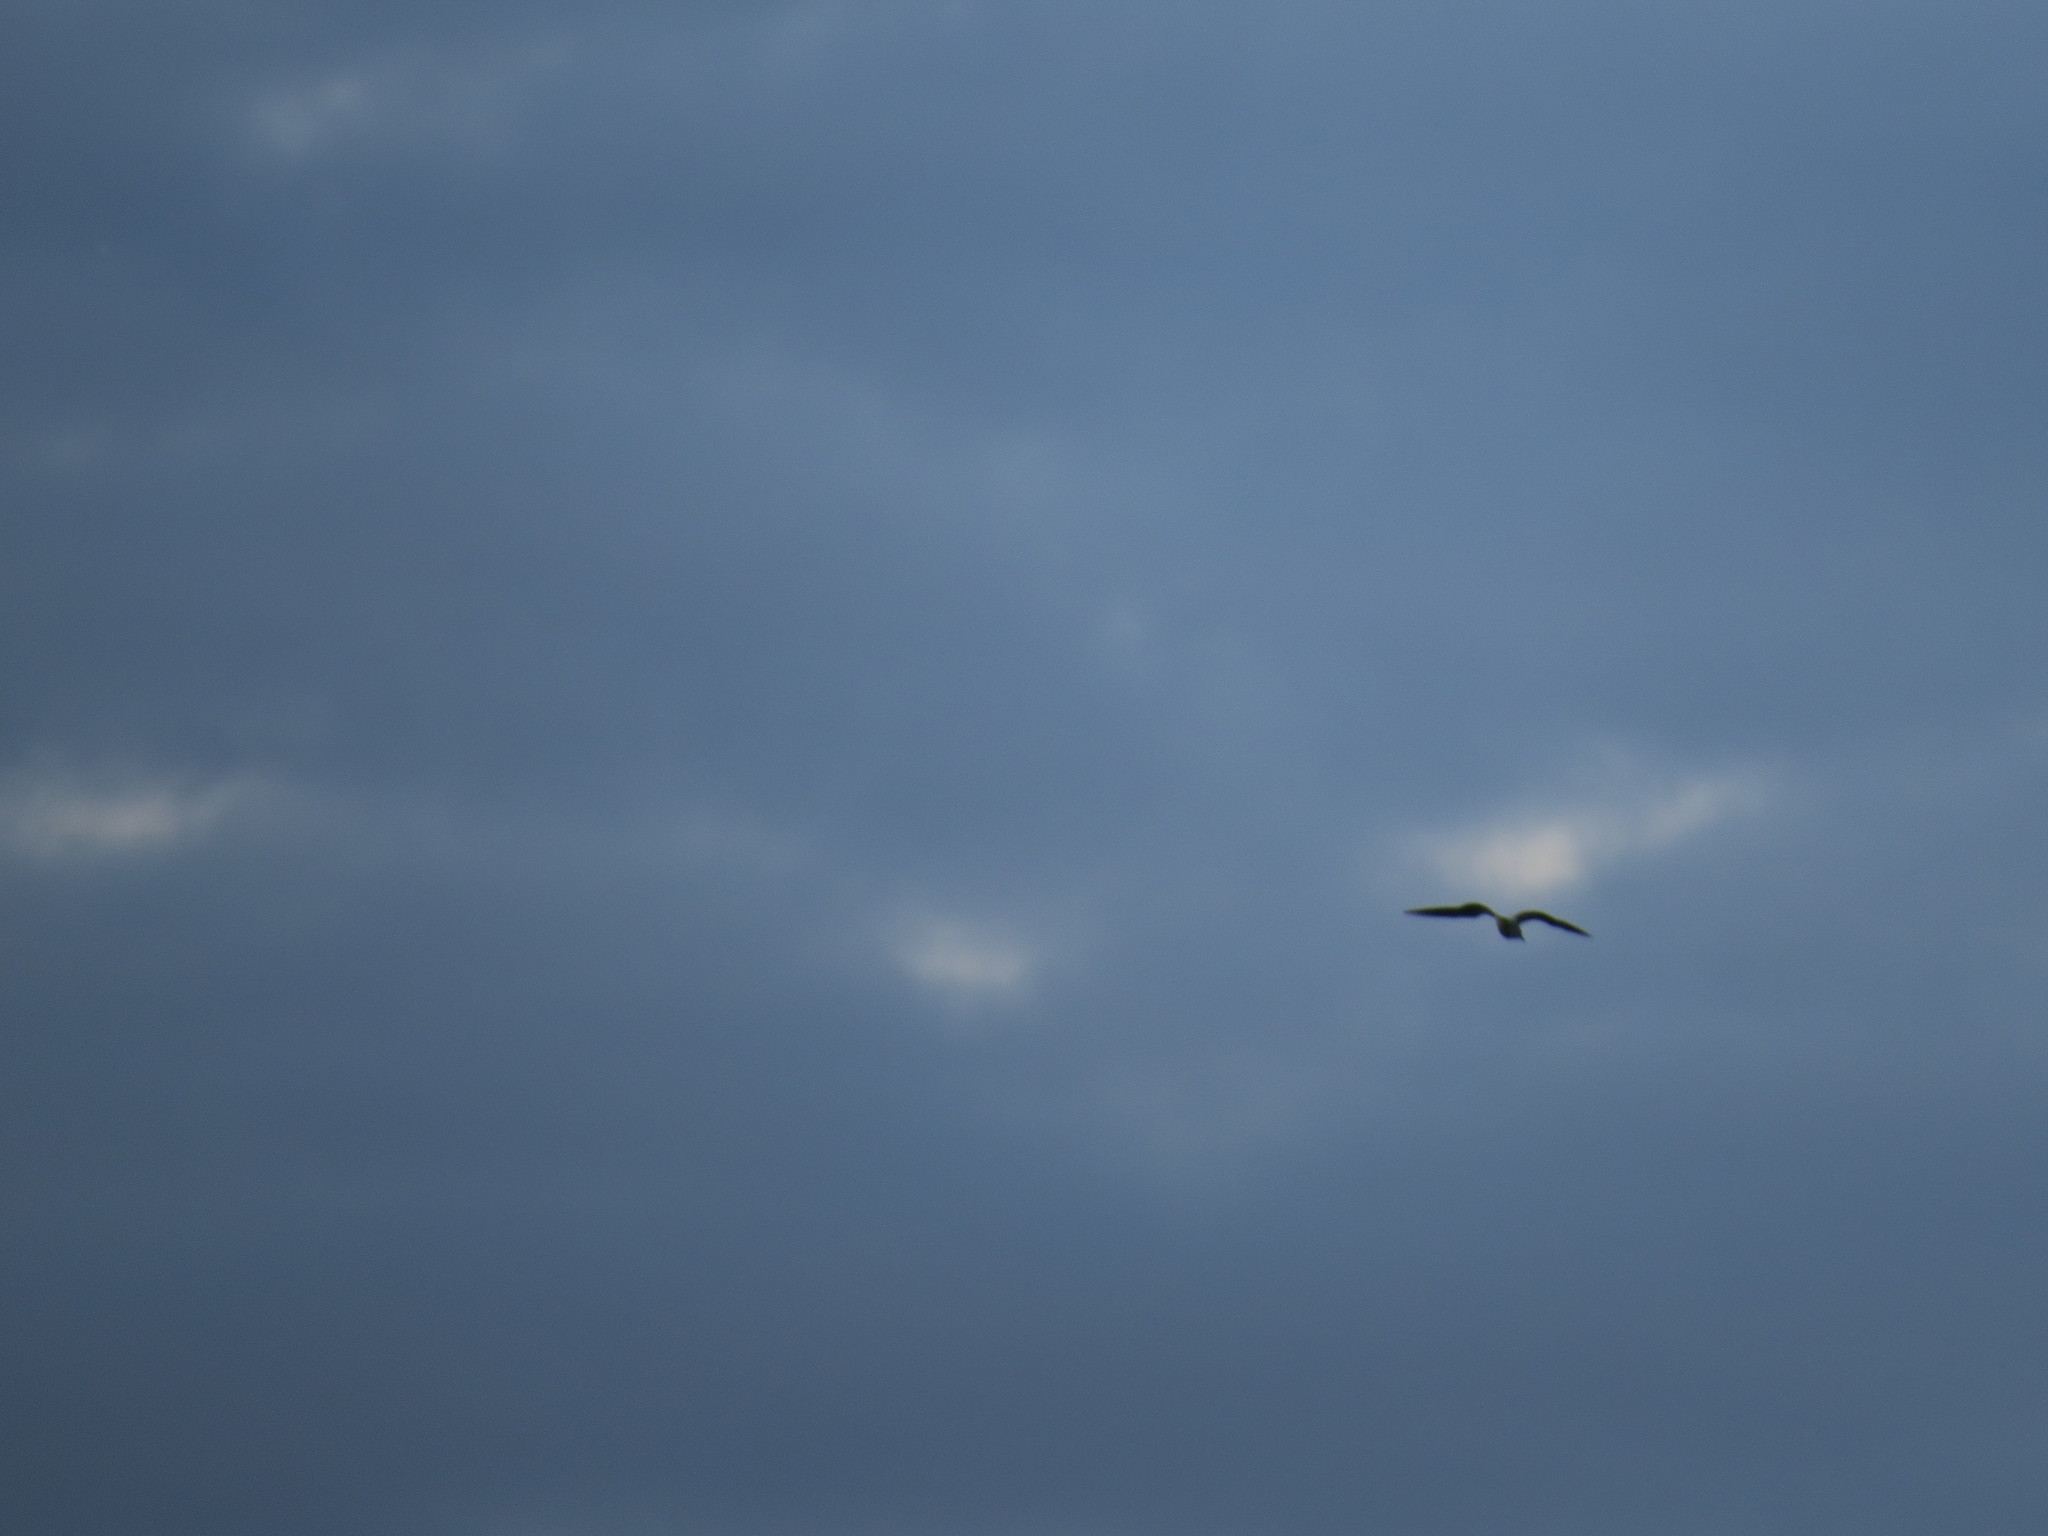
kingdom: Animalia
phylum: Chordata
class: Aves
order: Charadriiformes
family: Laridae
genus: Larus
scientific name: Larus
